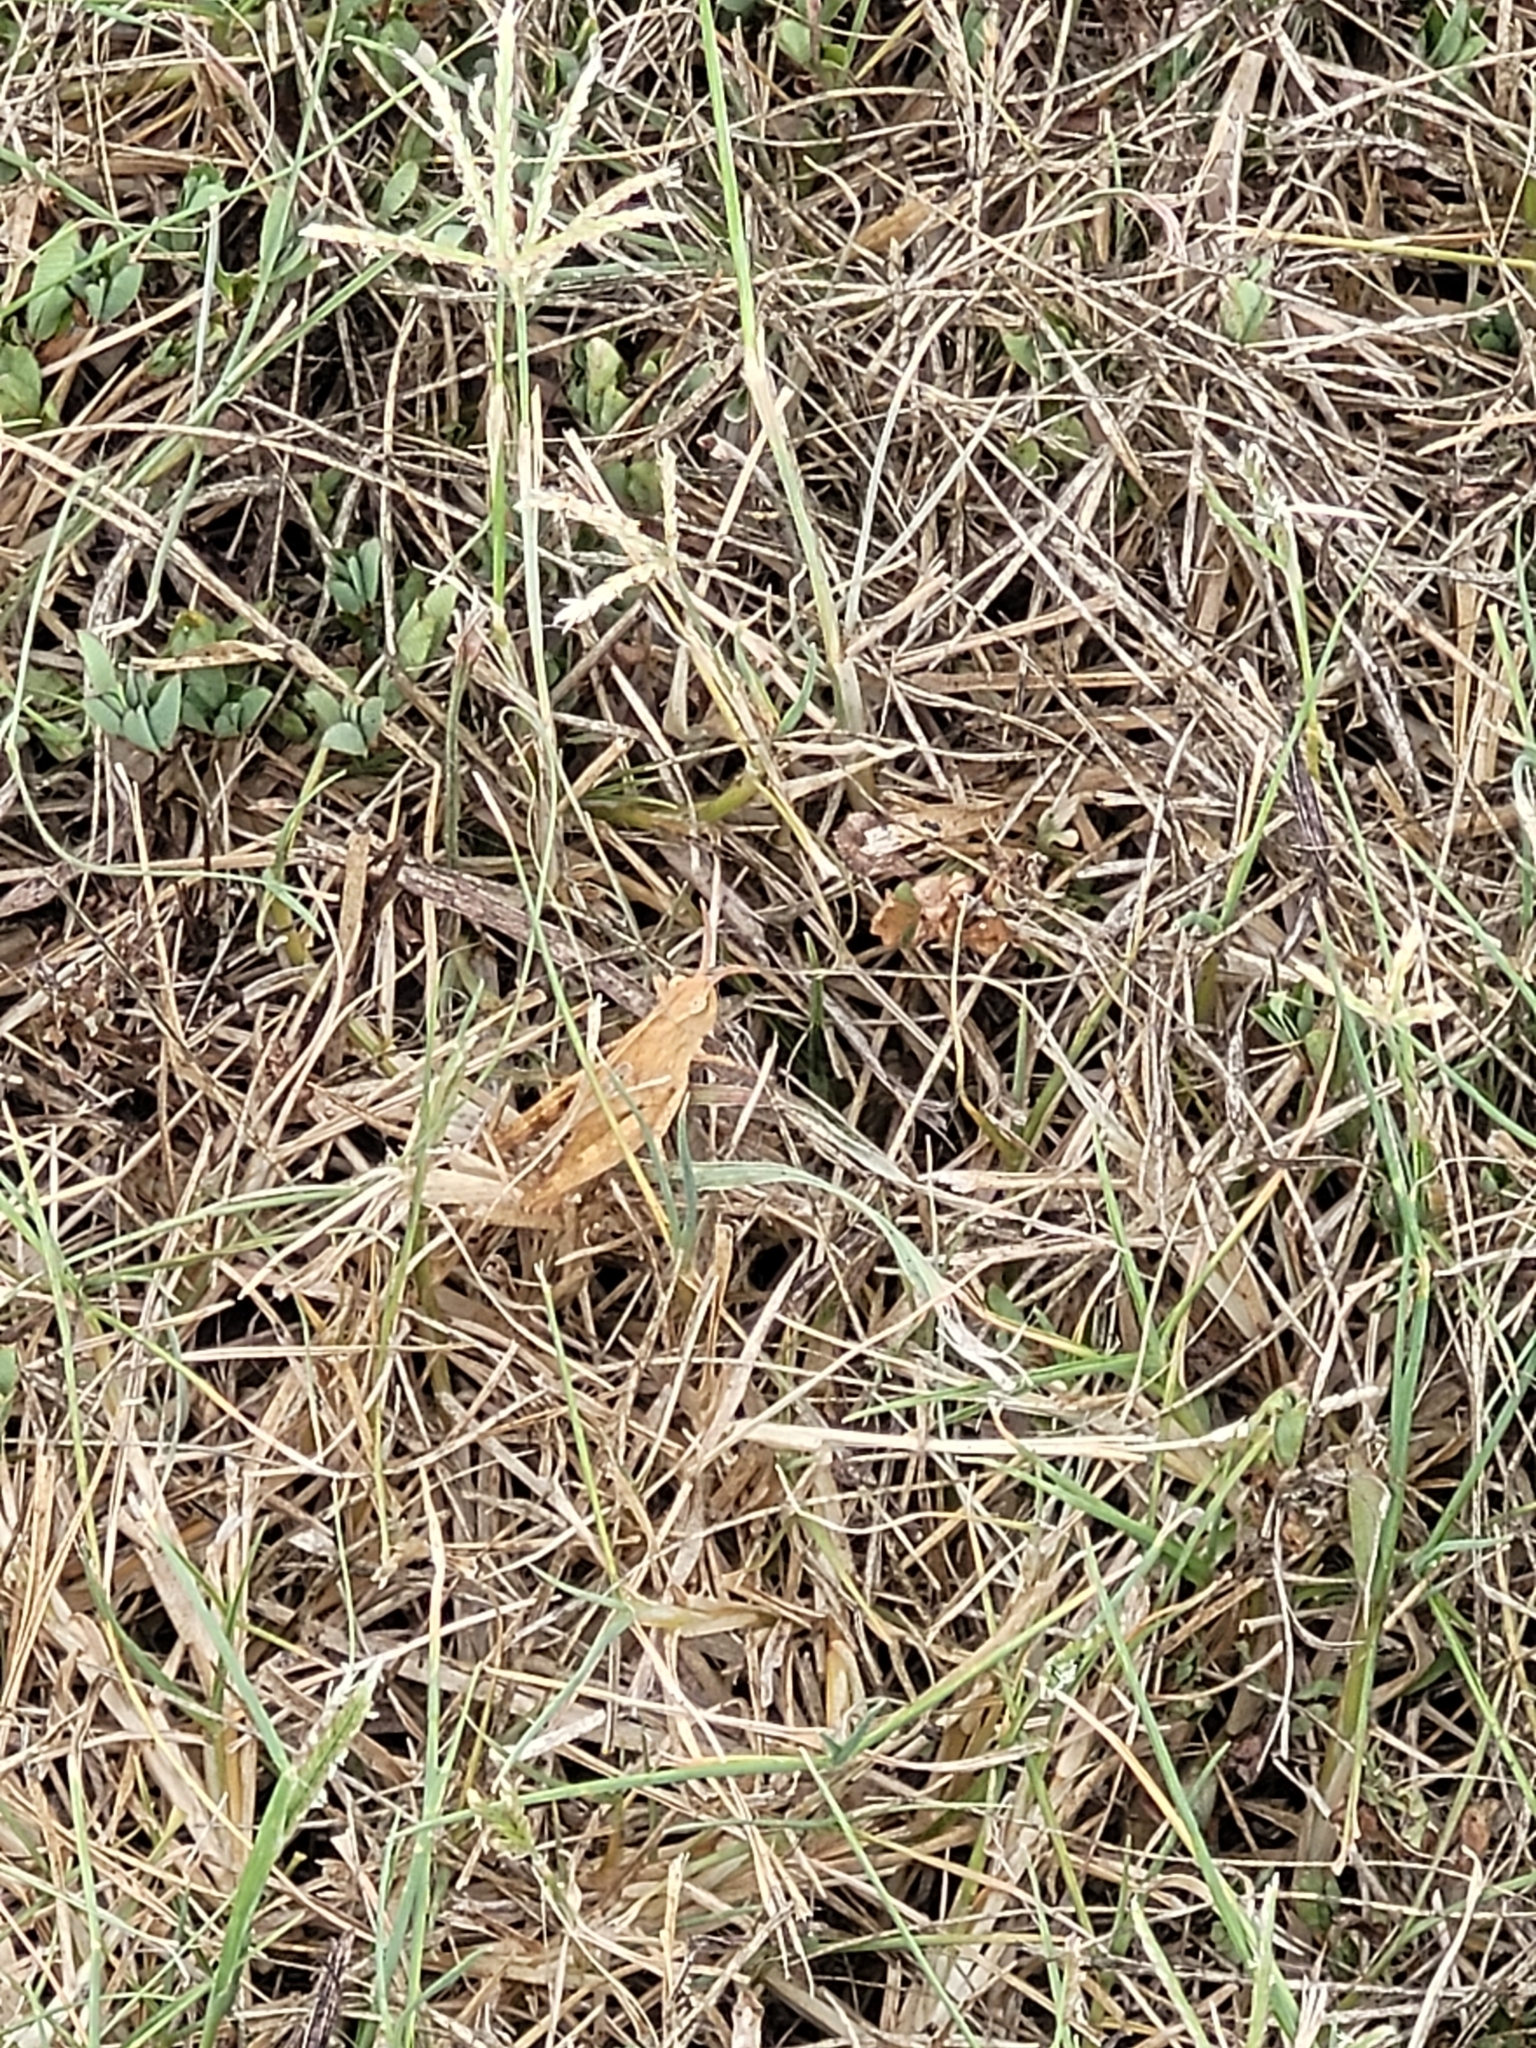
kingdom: Animalia
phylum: Arthropoda
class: Insecta
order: Orthoptera
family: Acrididae
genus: Chortophaga
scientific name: Chortophaga viridifasciata
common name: Green-striped grasshopper
